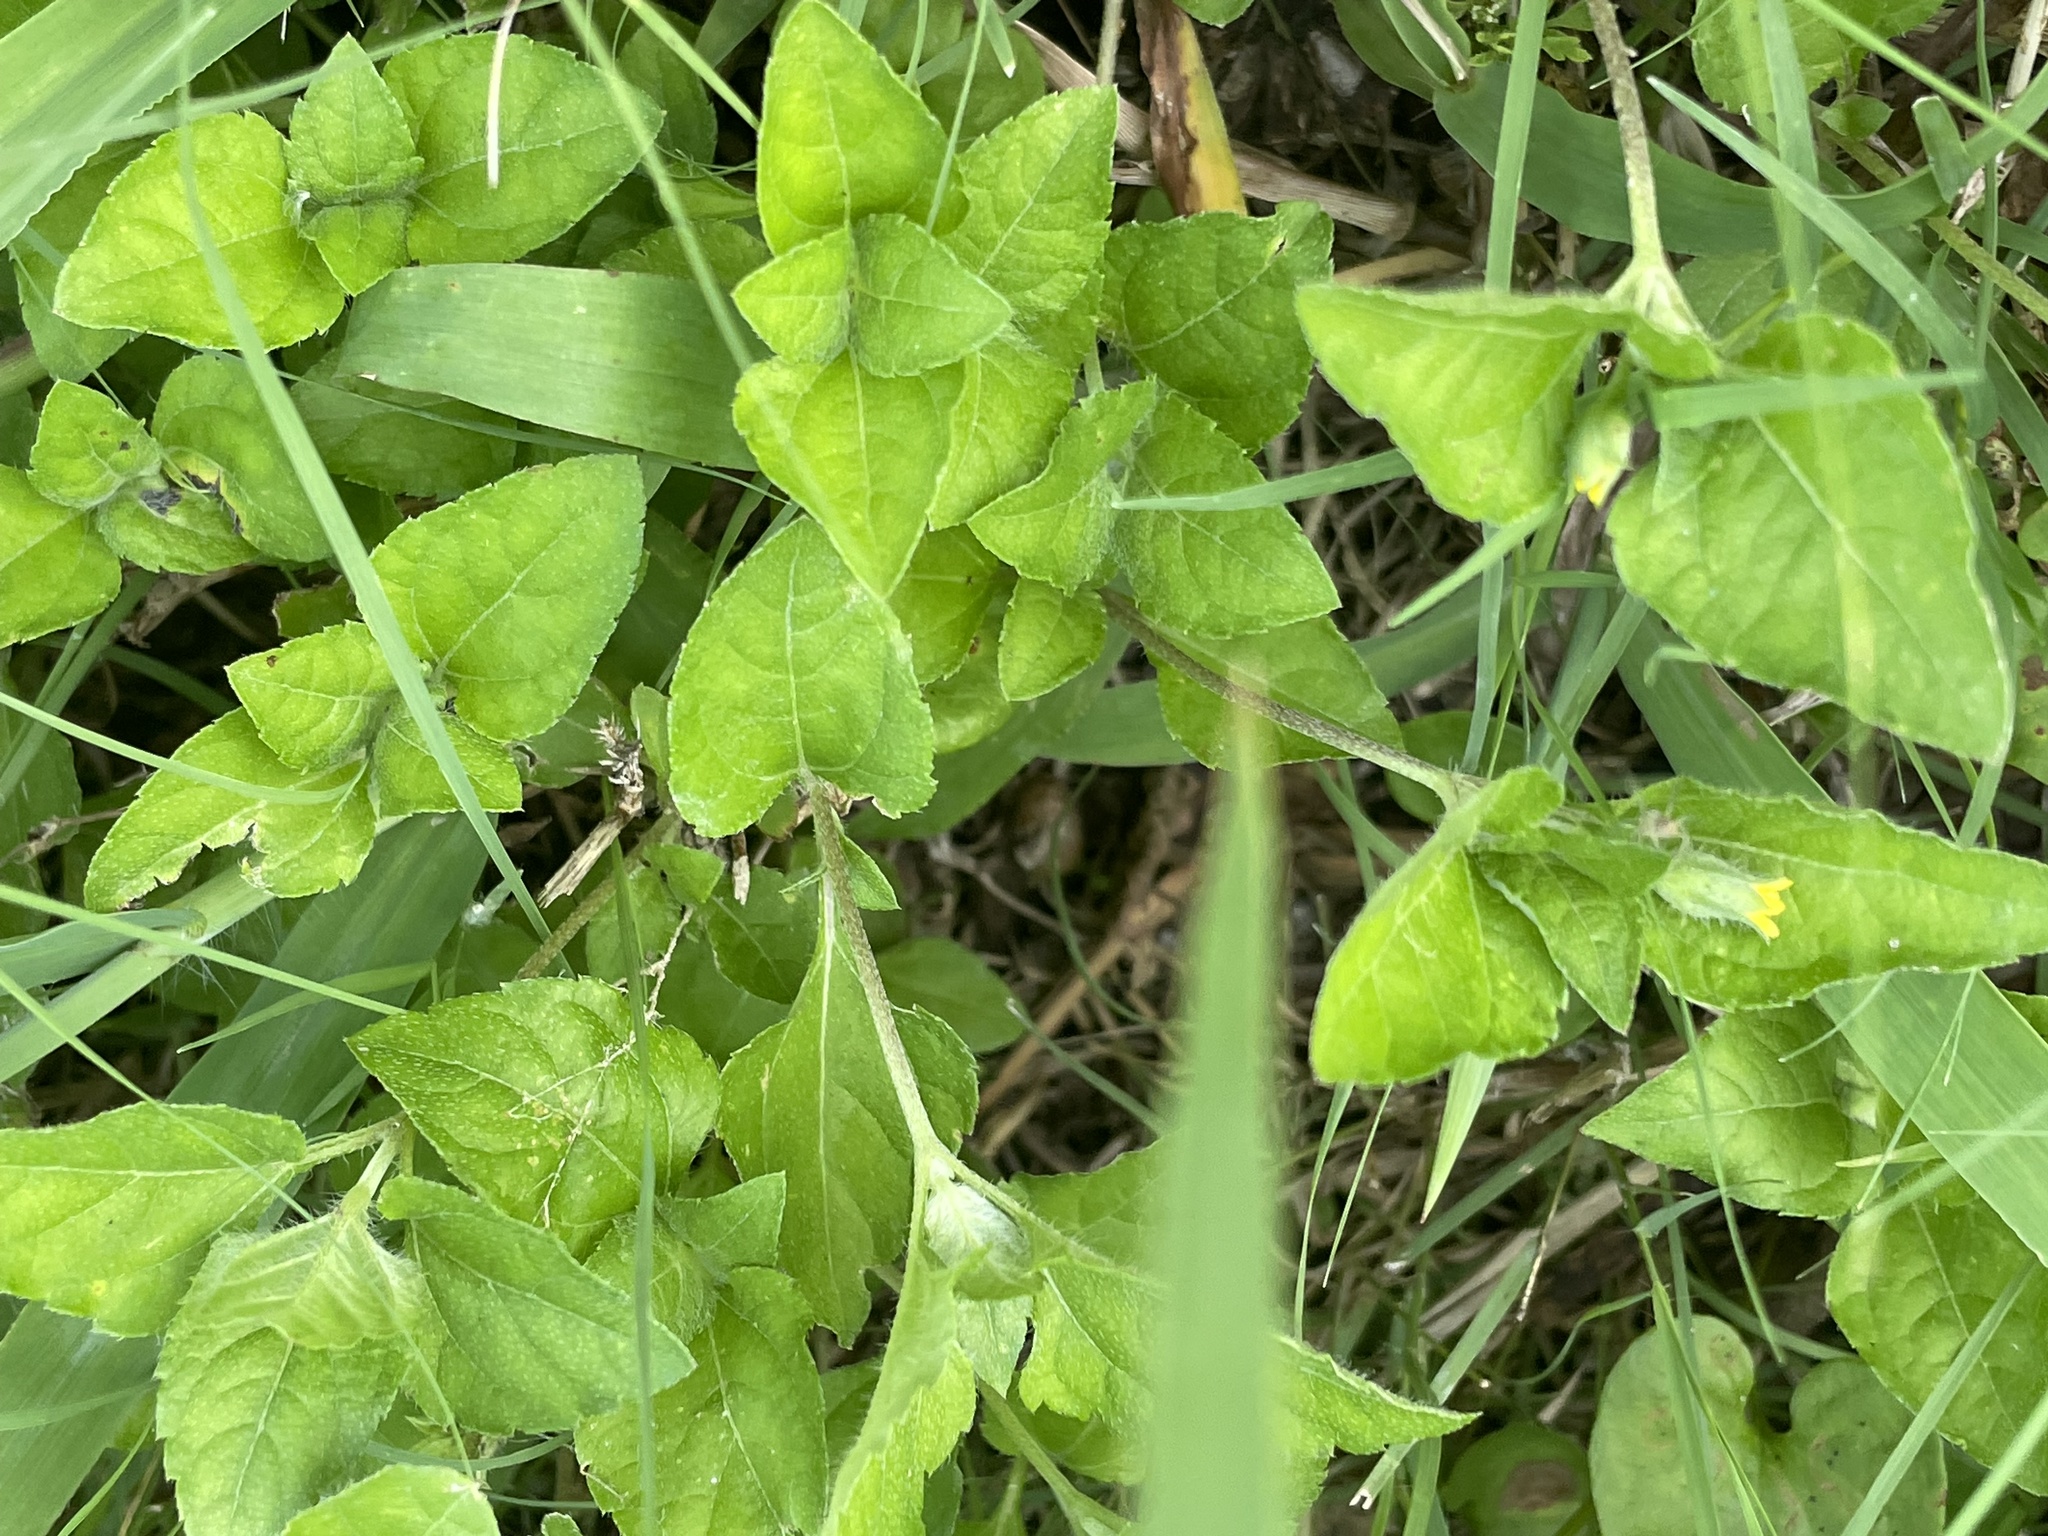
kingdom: Plantae
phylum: Tracheophyta
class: Magnoliopsida
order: Asterales
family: Asteraceae
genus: Calyptocarpus
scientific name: Calyptocarpus vialis
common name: Straggler daisy
